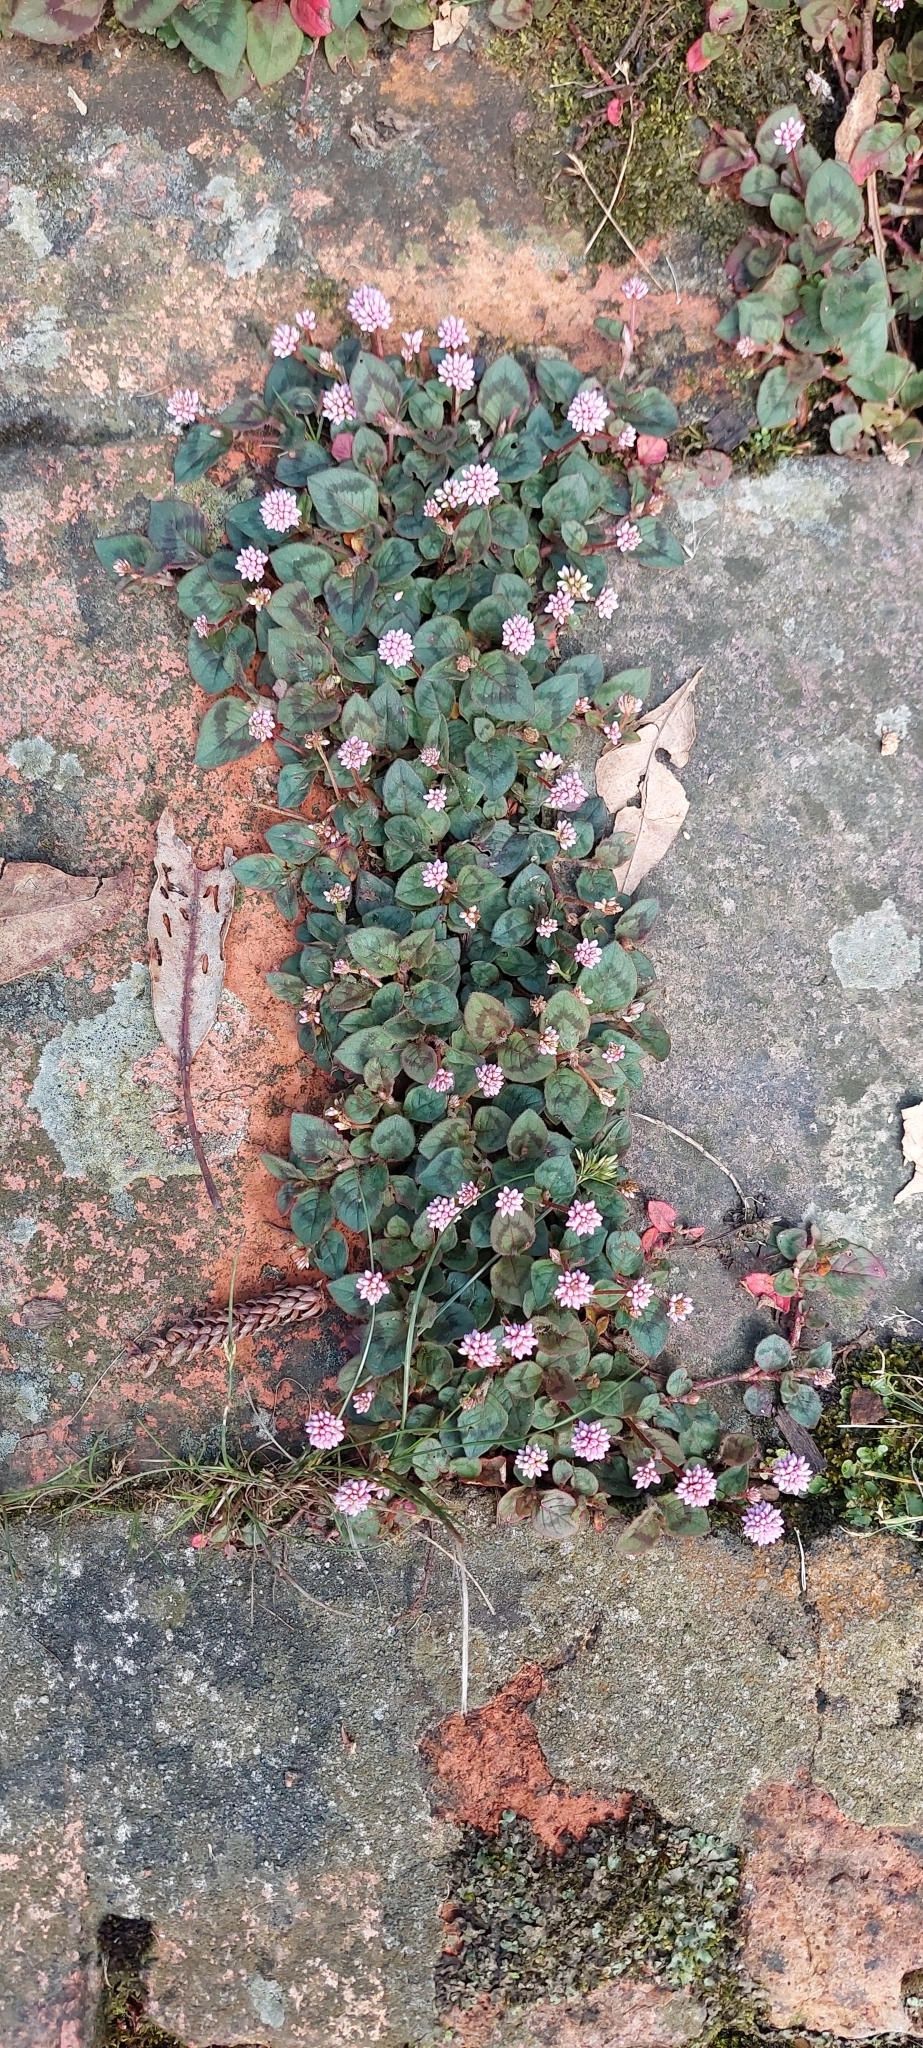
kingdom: Plantae
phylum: Tracheophyta
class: Magnoliopsida
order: Caryophyllales
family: Polygonaceae
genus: Persicaria
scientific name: Persicaria capitata
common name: Pinkhead smartweed
